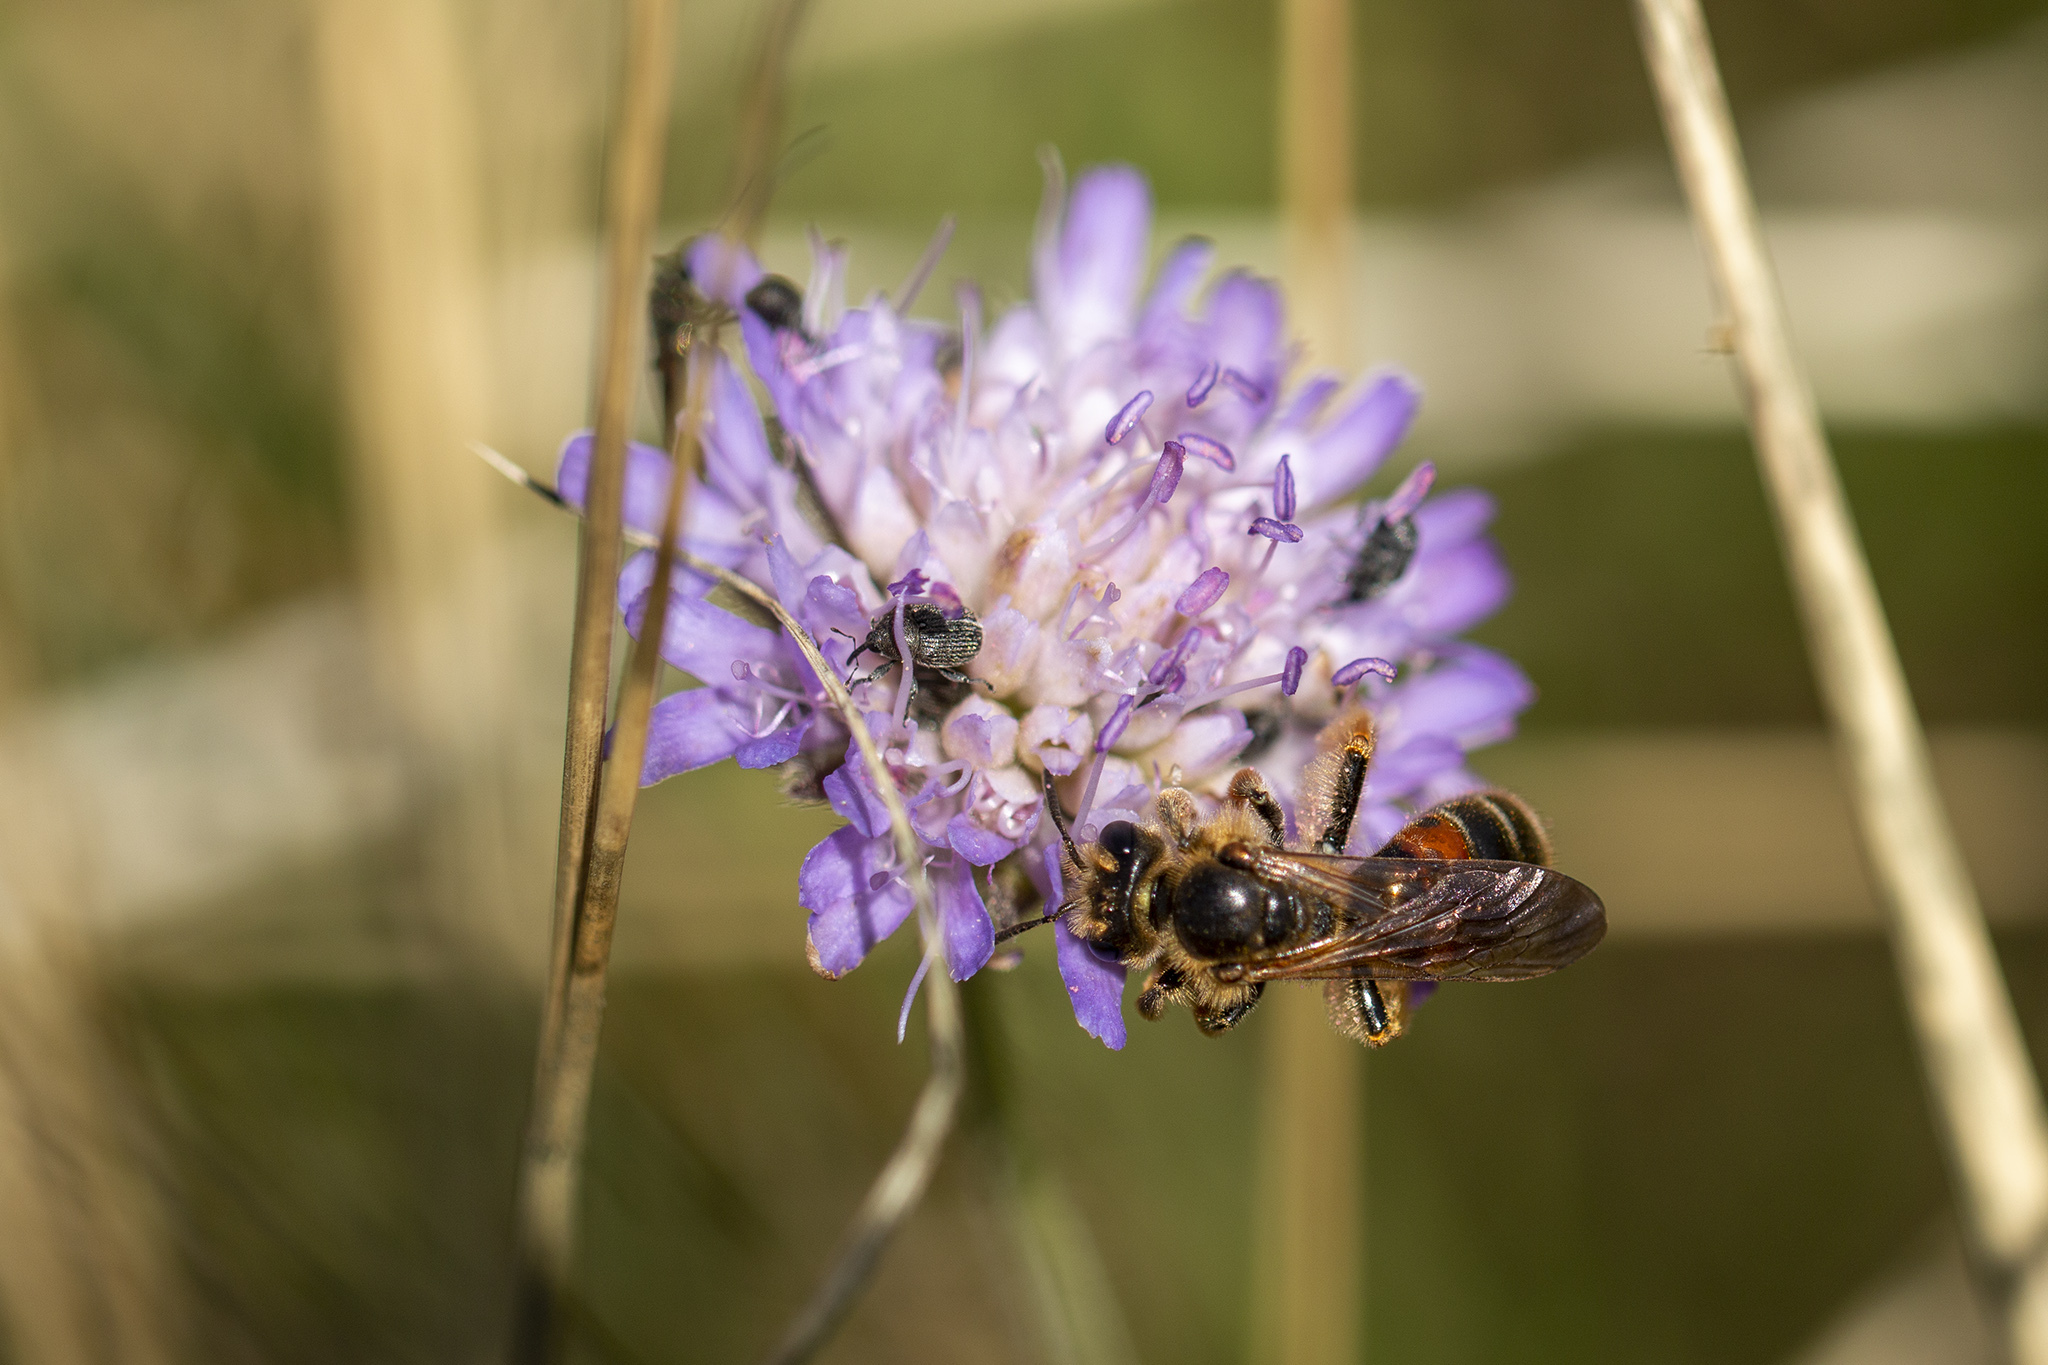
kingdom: Animalia
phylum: Arthropoda
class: Insecta
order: Hymenoptera
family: Andrenidae
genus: Andrena
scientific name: Andrena hattorfiana
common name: Large scabious mining bee
